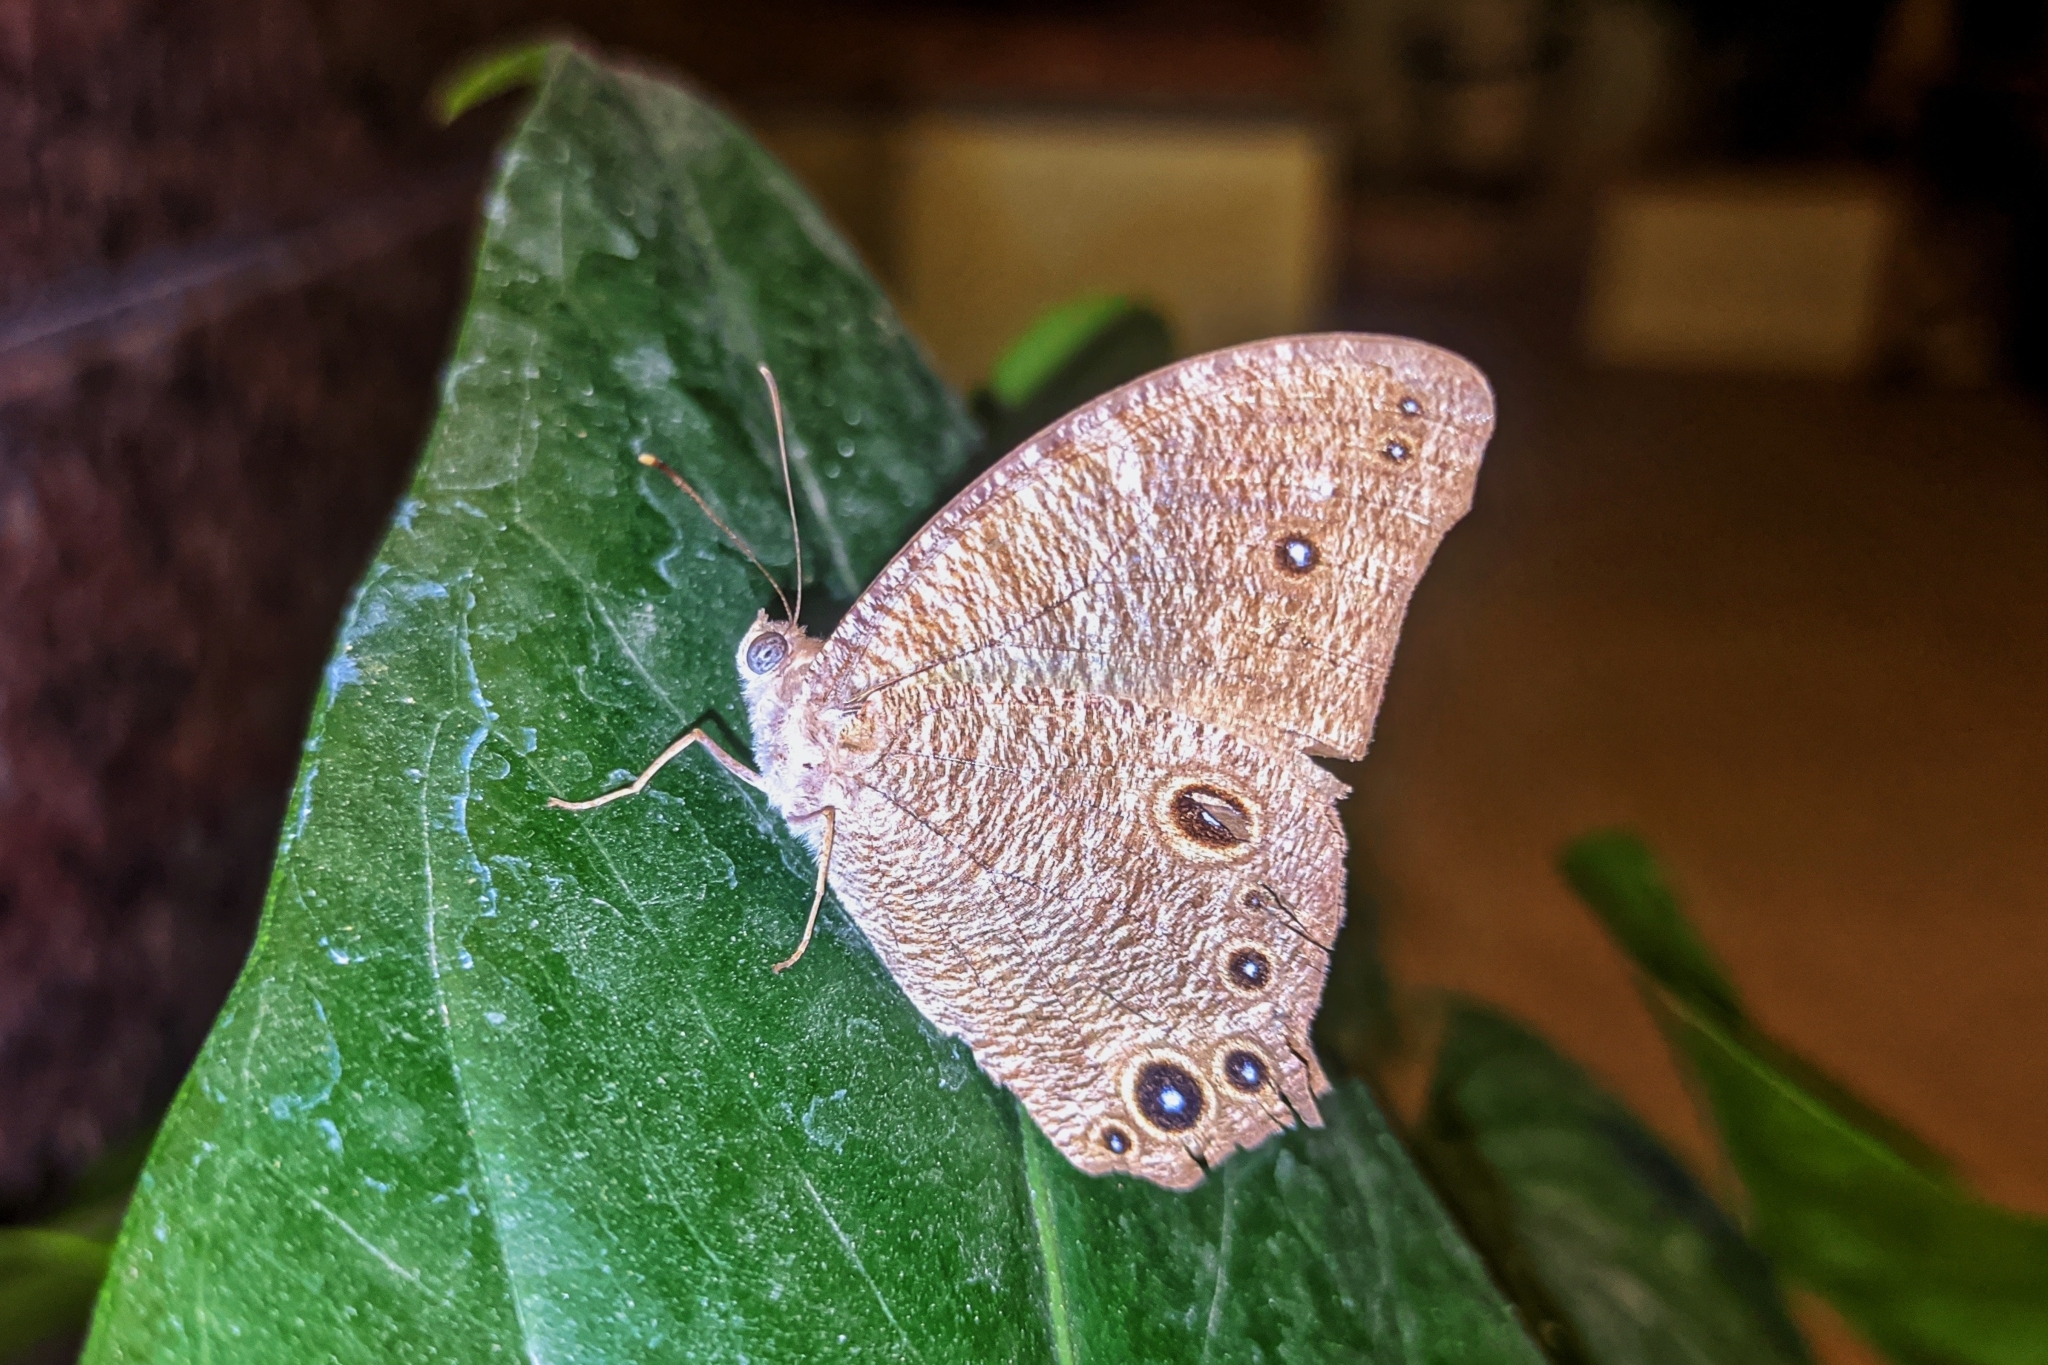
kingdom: Animalia
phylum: Arthropoda
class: Insecta
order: Lepidoptera
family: Nymphalidae
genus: Melanitis
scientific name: Melanitis leda
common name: Twilight brown
